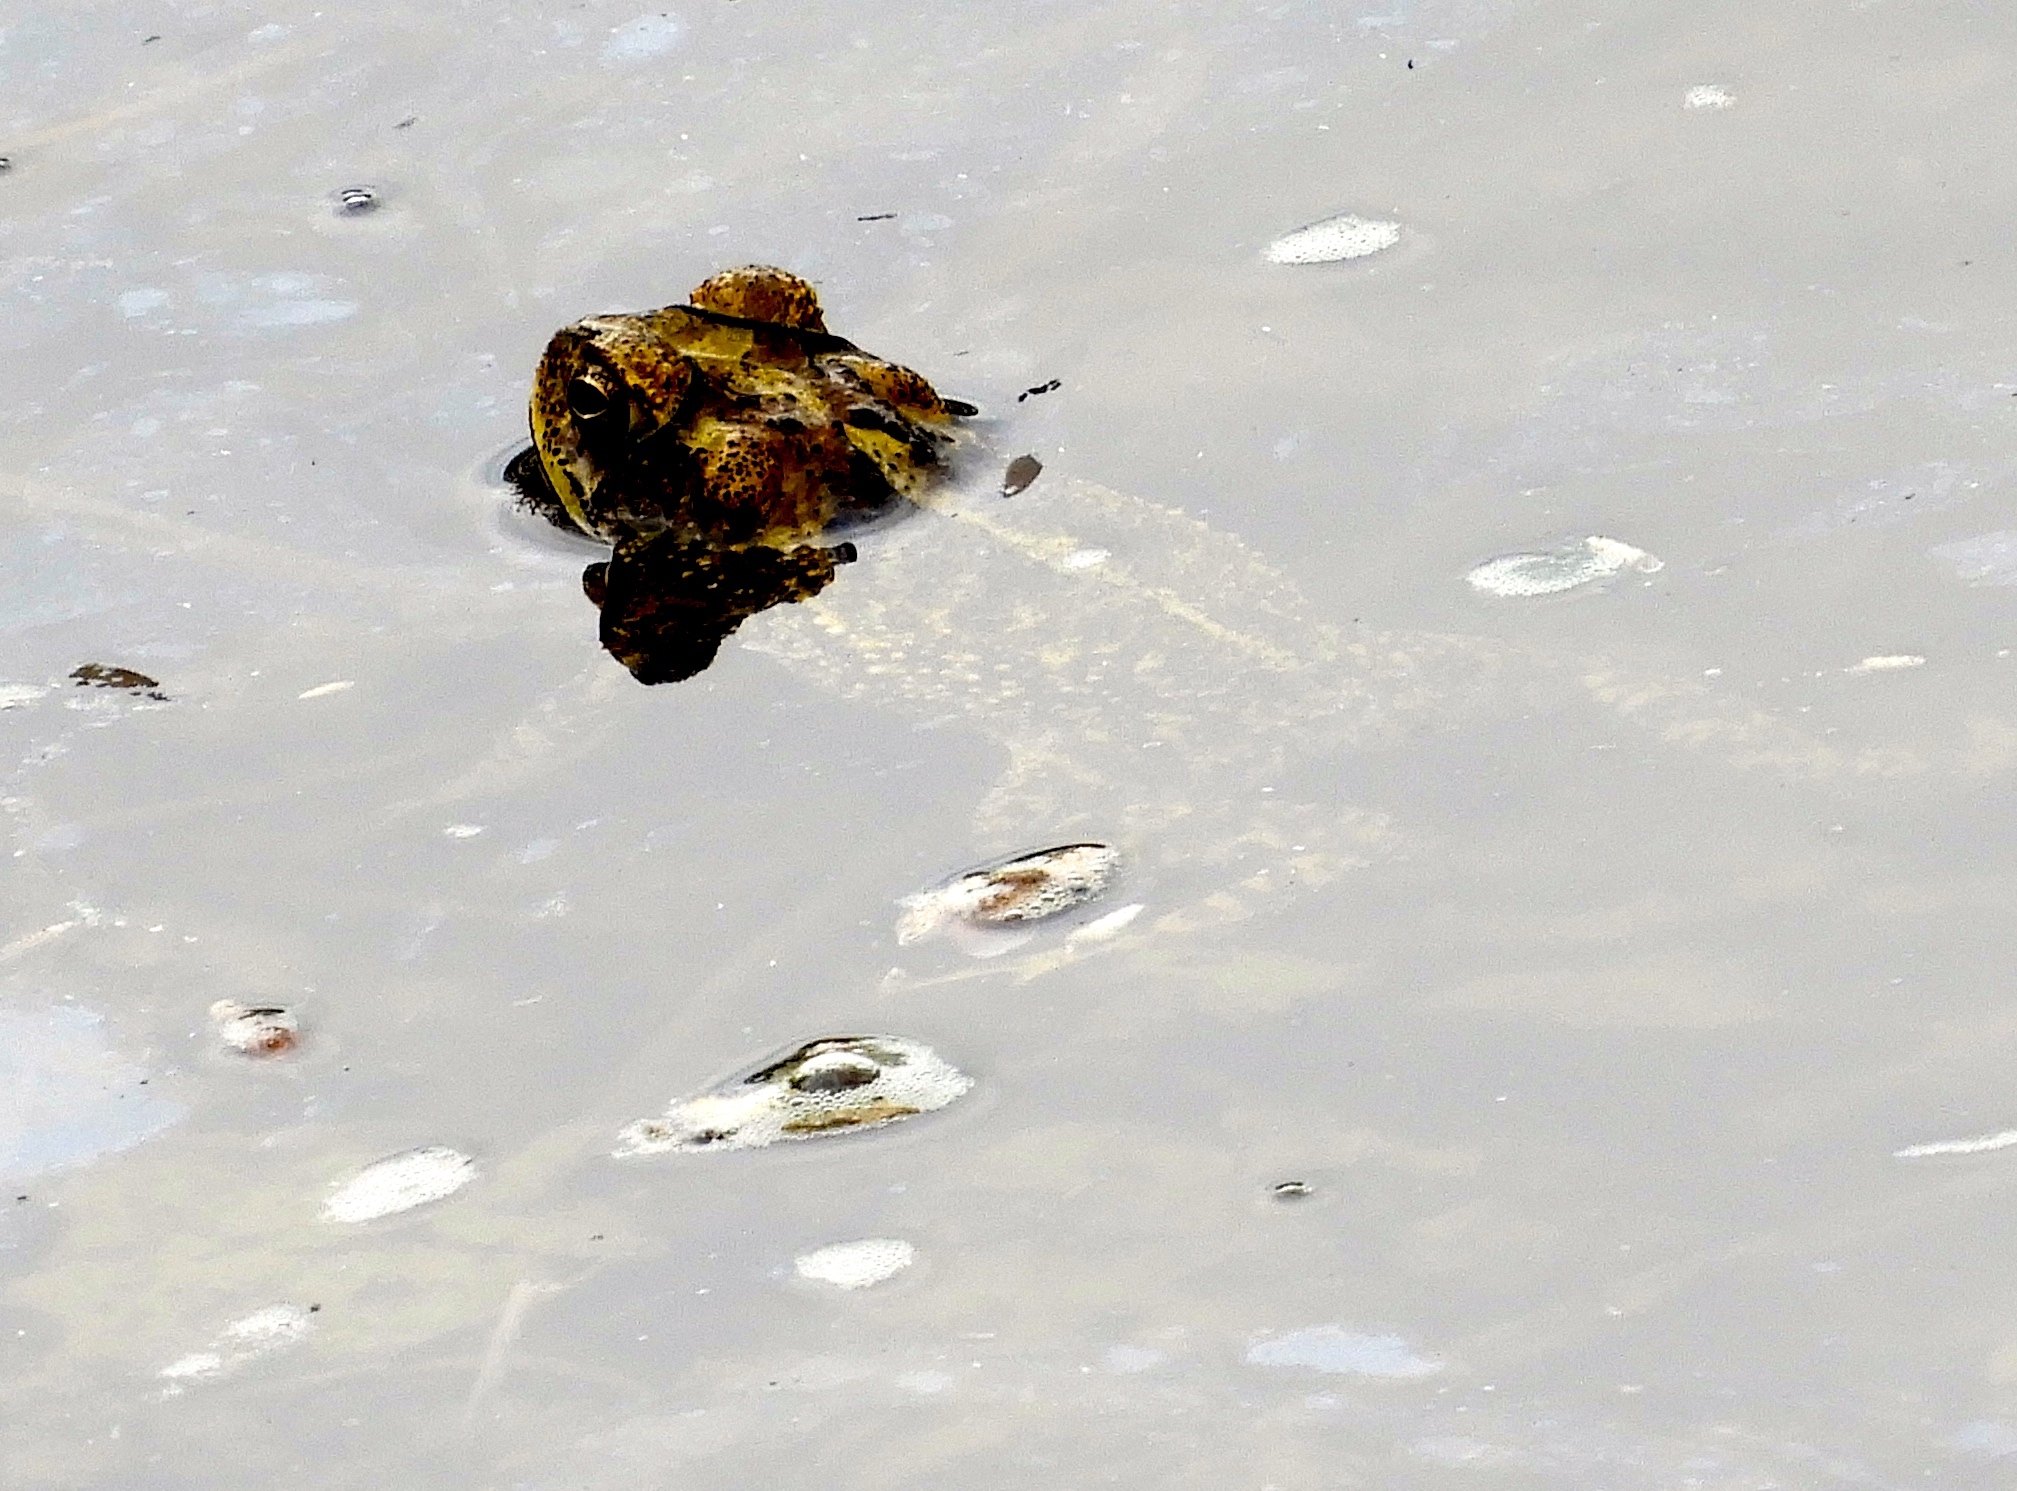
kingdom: Animalia
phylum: Chordata
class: Amphibia
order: Anura
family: Bufonidae
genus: Incilius
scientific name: Incilius mazatlanensis
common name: Sinaloa toad
